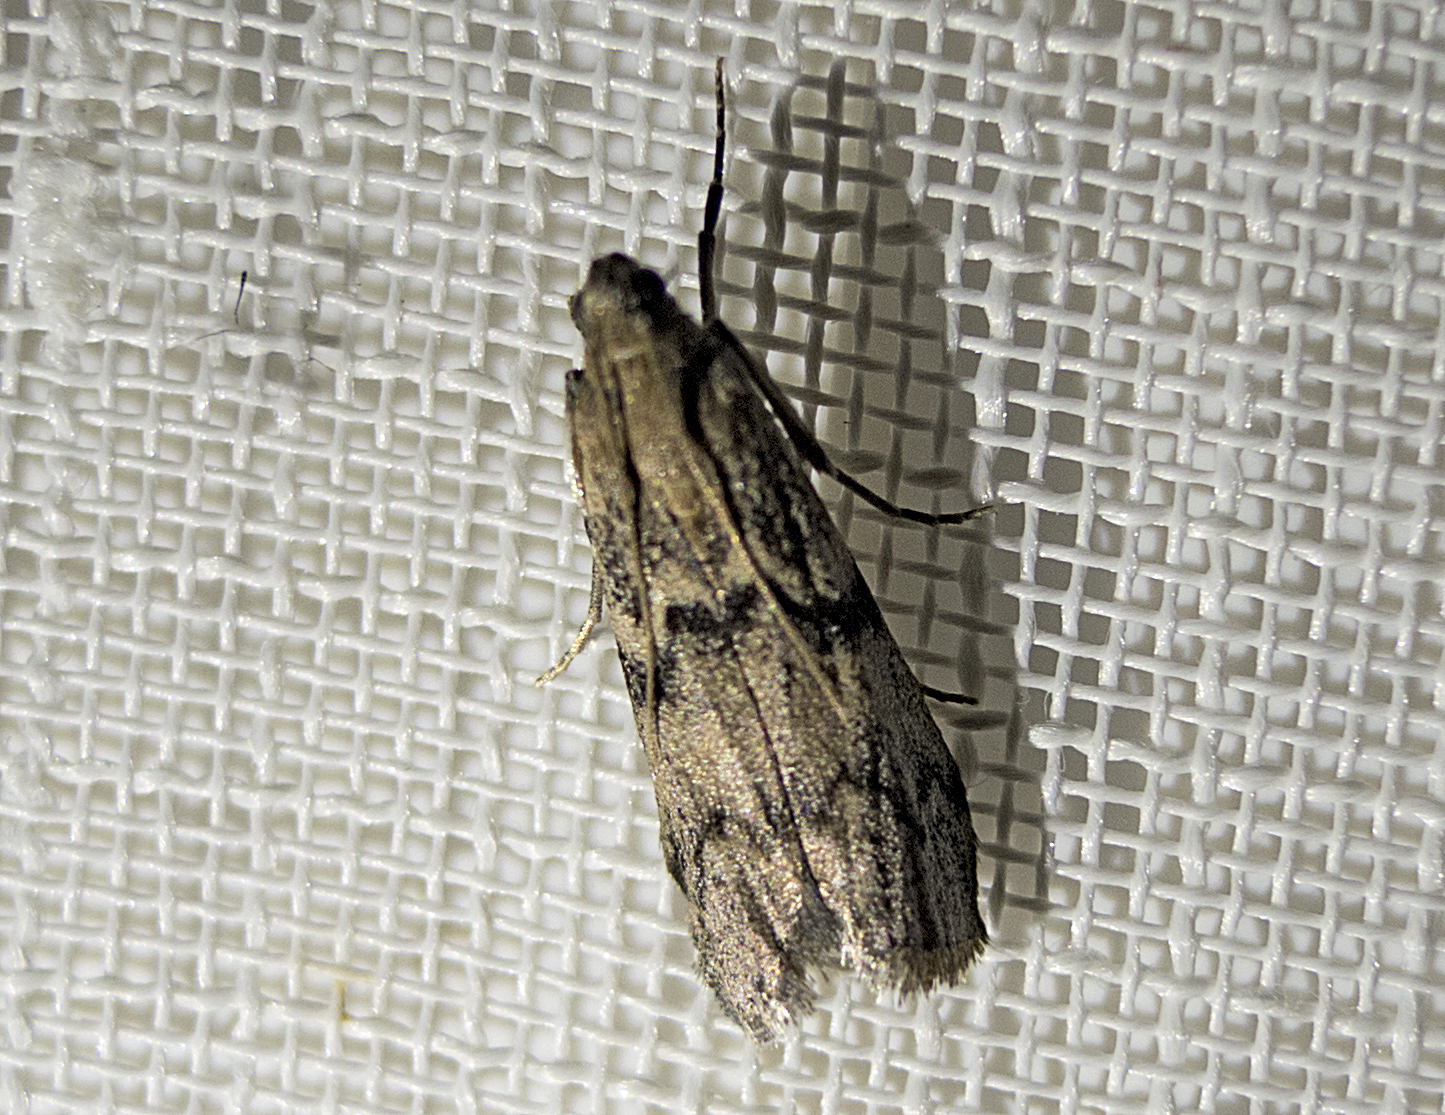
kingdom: Animalia
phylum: Arthropoda
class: Insecta
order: Lepidoptera
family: Pyralidae
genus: Euzophera
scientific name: Euzophera pinguis
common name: Ash-bark knot-horn
